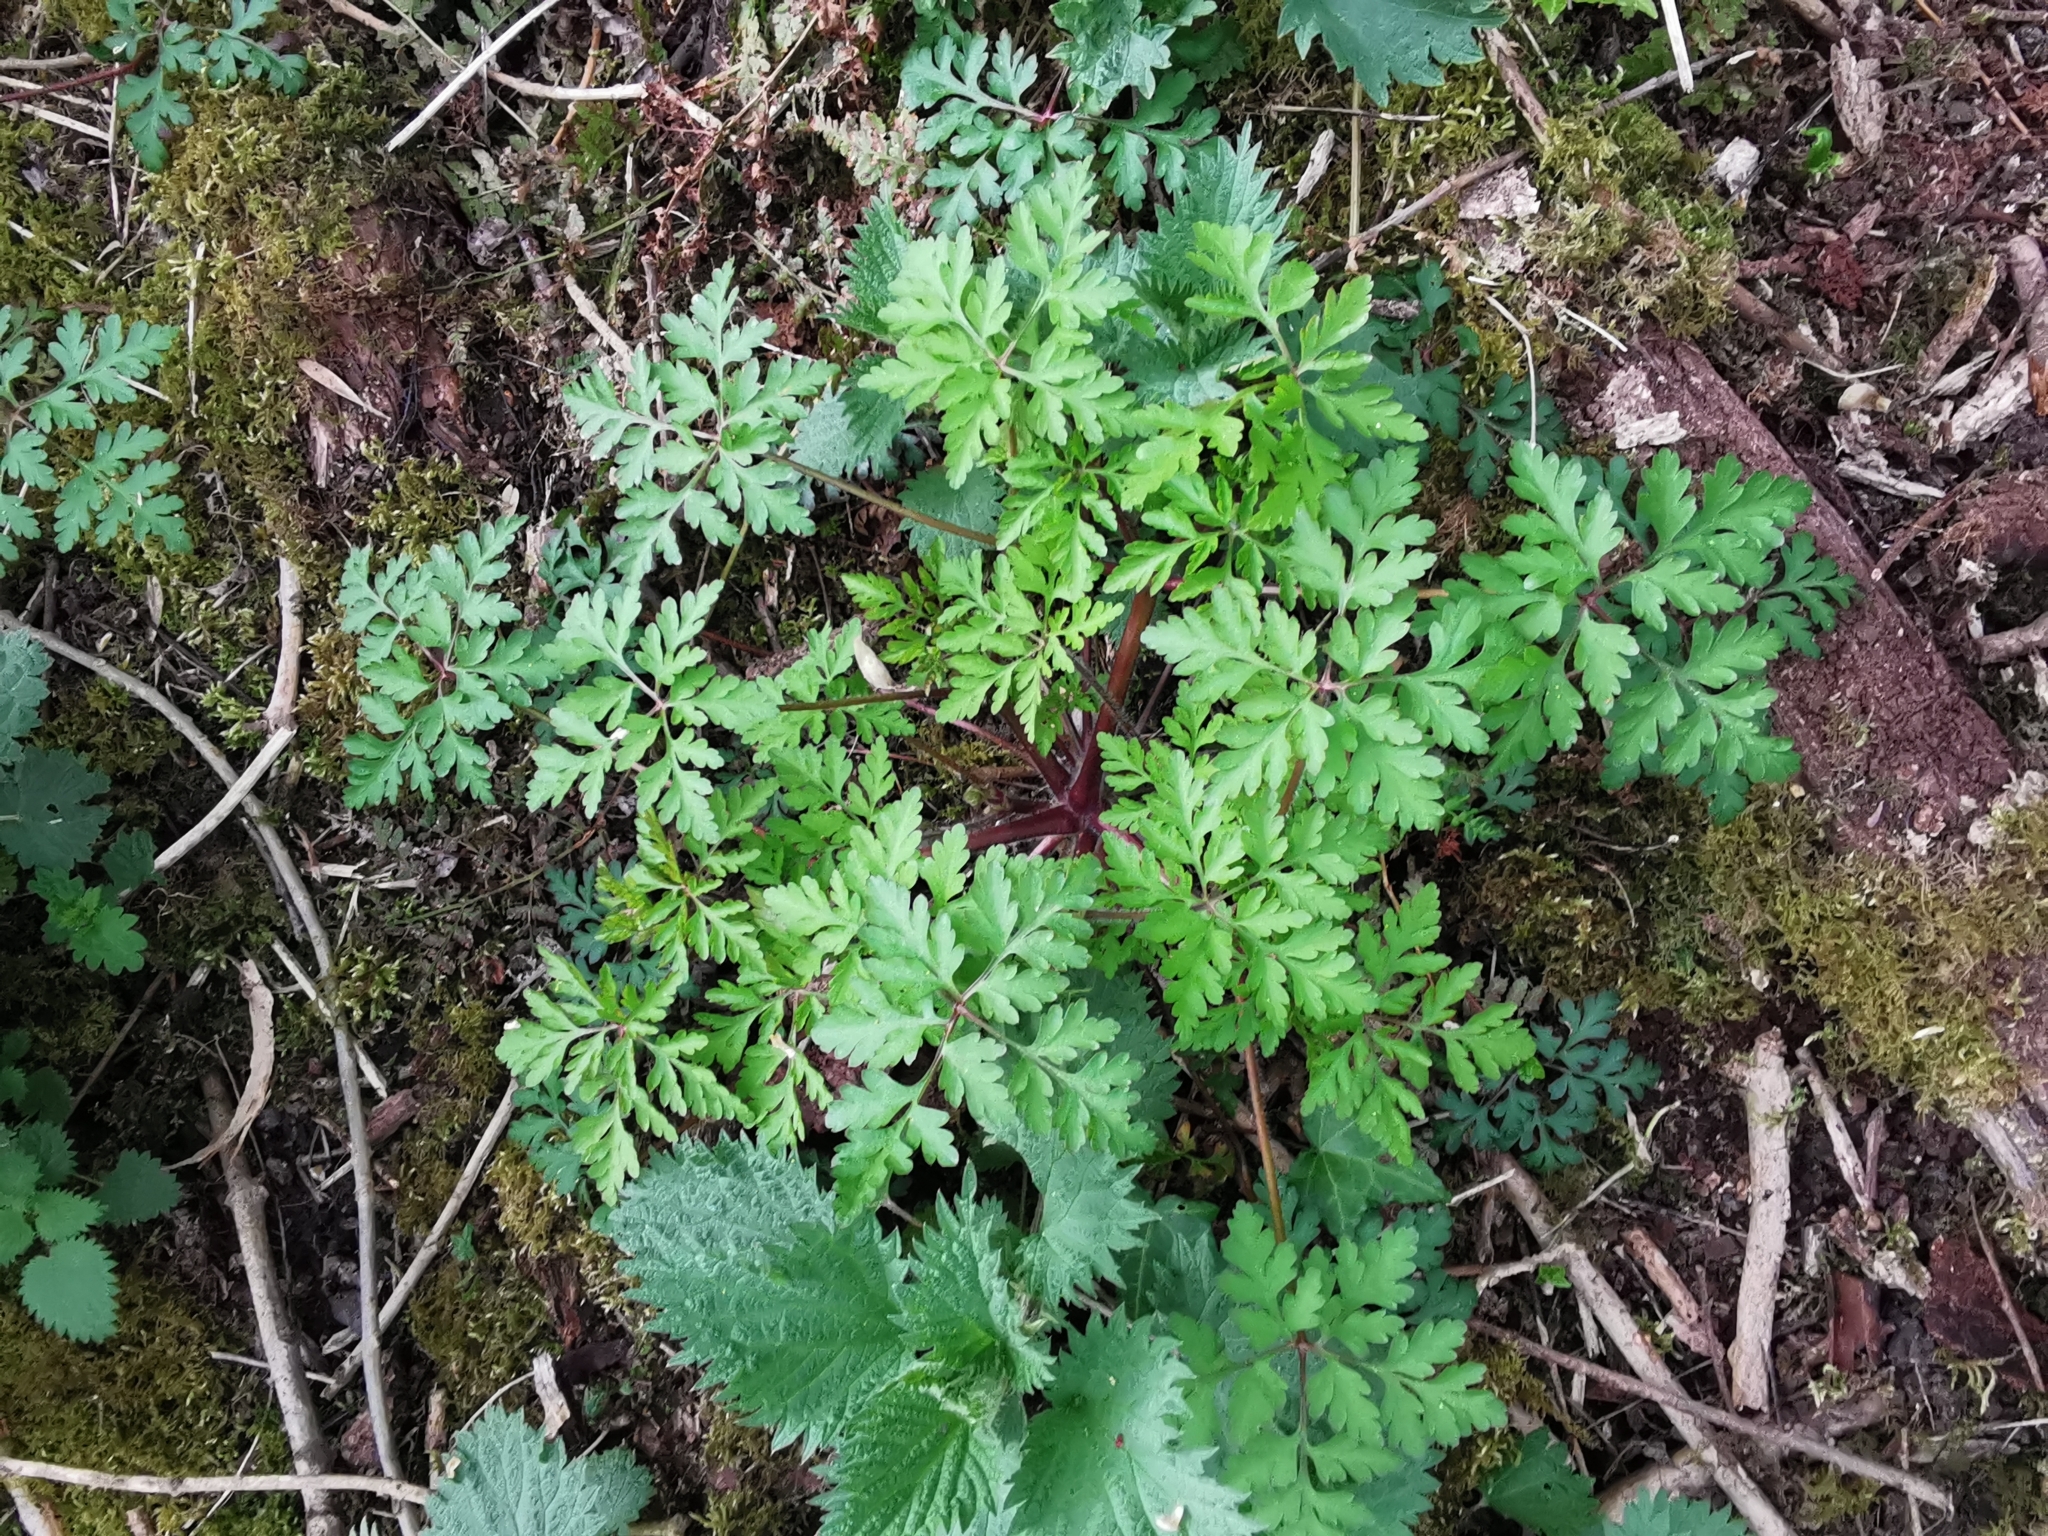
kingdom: Plantae
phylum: Tracheophyta
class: Magnoliopsida
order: Geraniales
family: Geraniaceae
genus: Geranium
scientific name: Geranium robertianum
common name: Herb-robert
